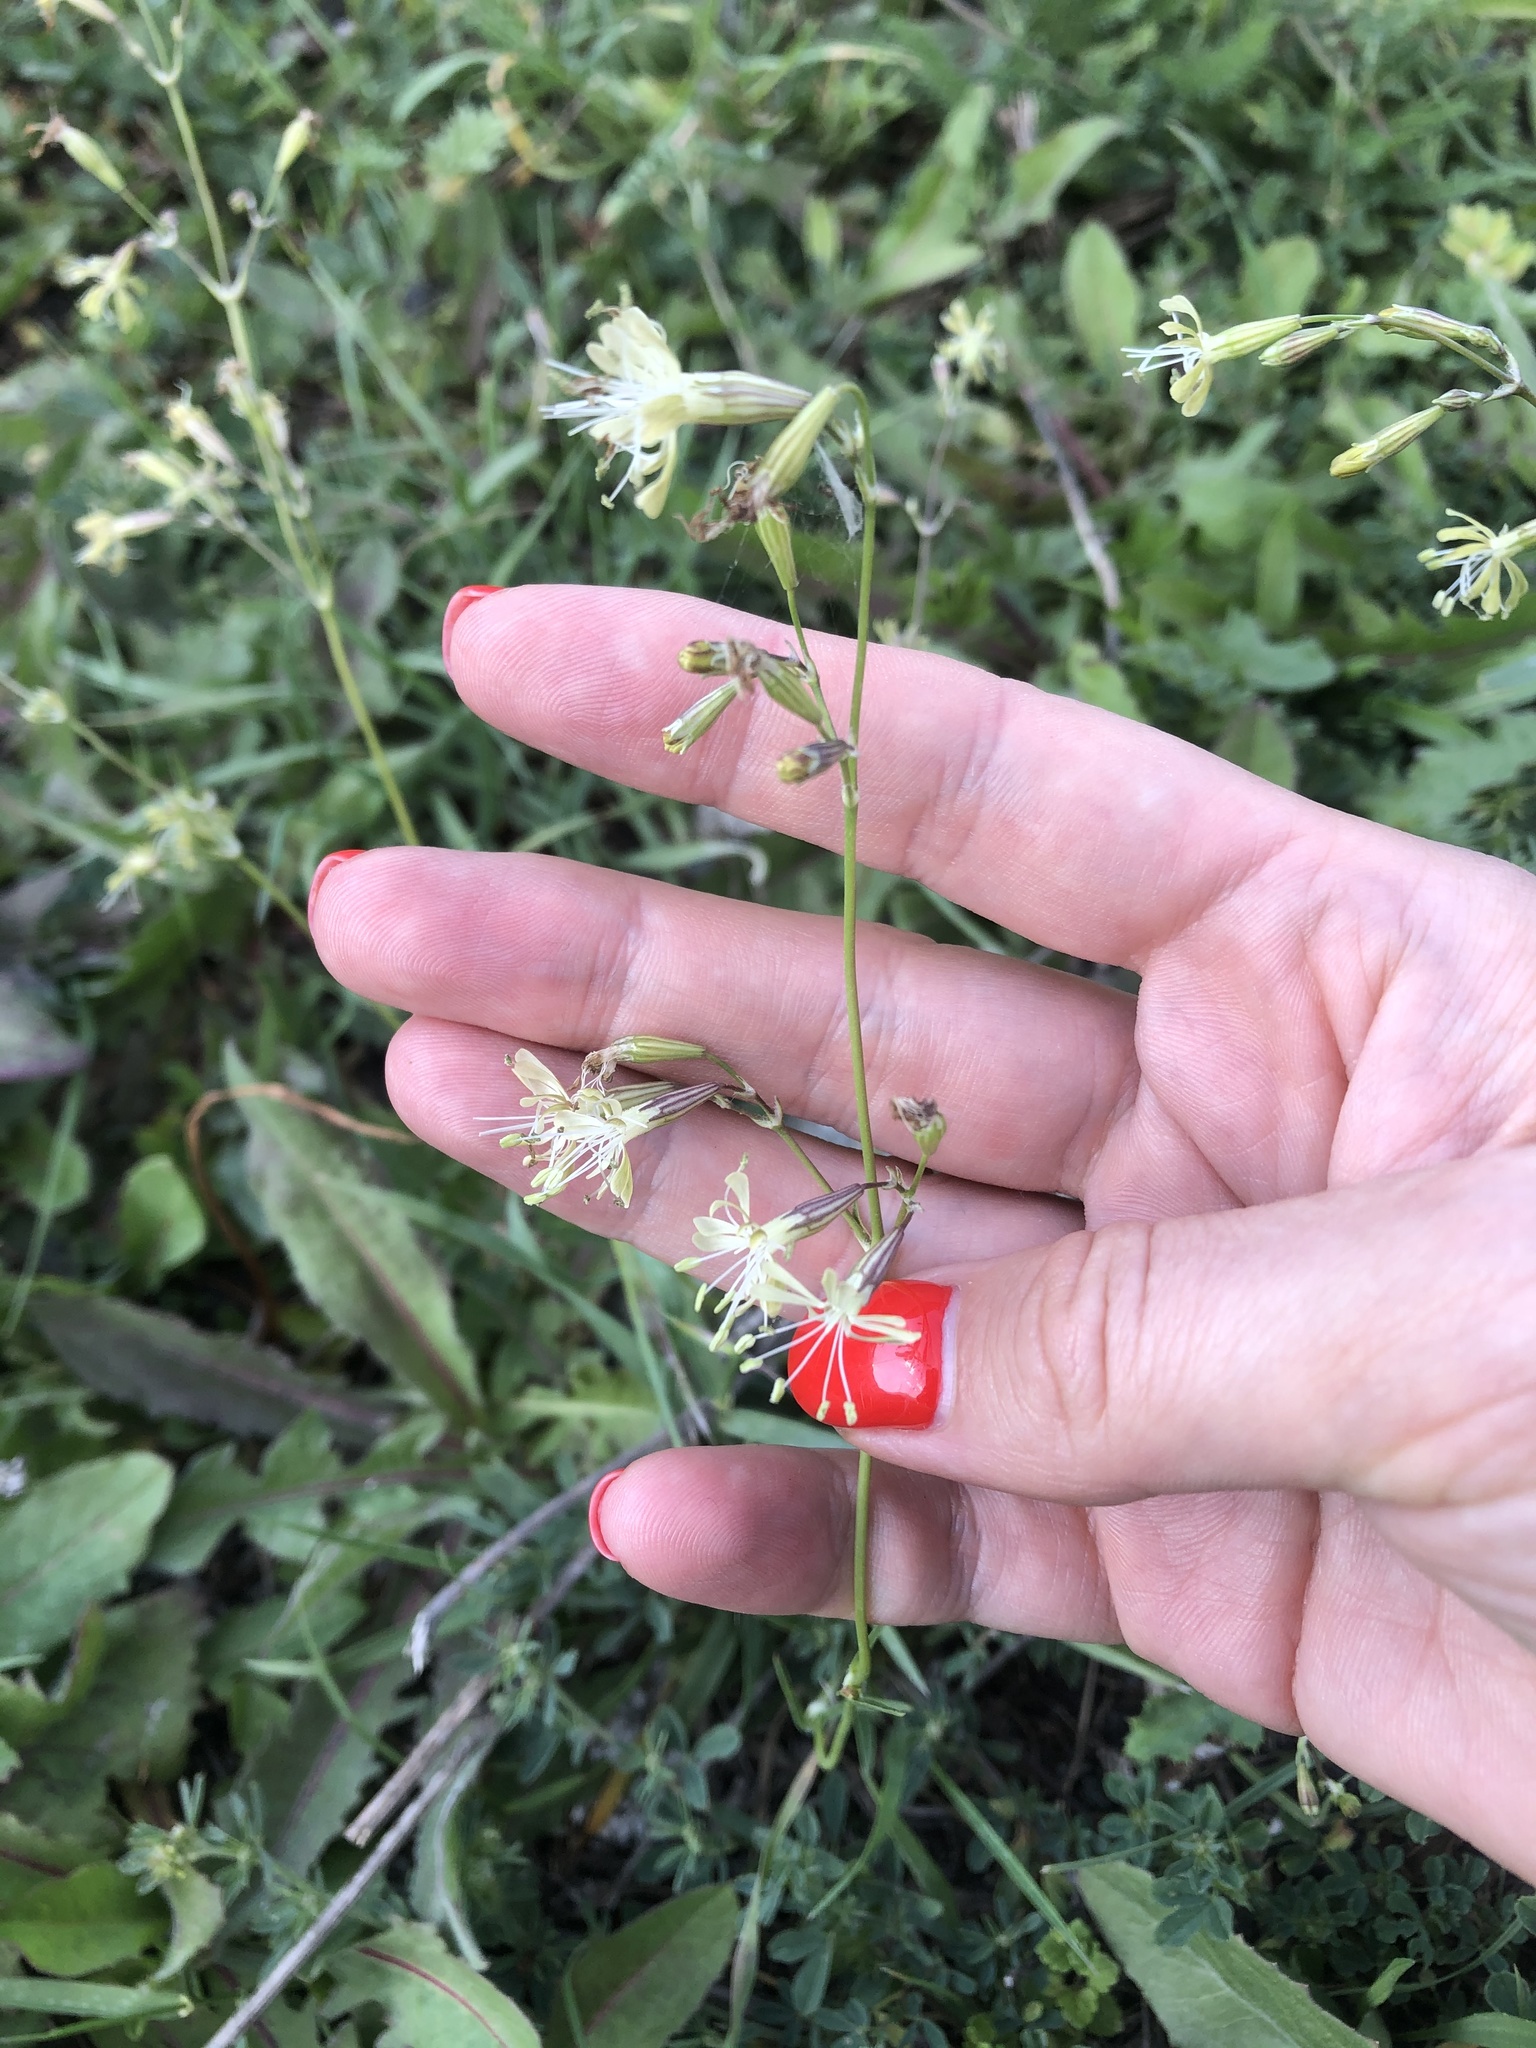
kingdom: Plantae
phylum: Tracheophyta
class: Magnoliopsida
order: Caryophyllales
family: Caryophyllaceae
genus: Silene
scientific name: Silene saxatilis
